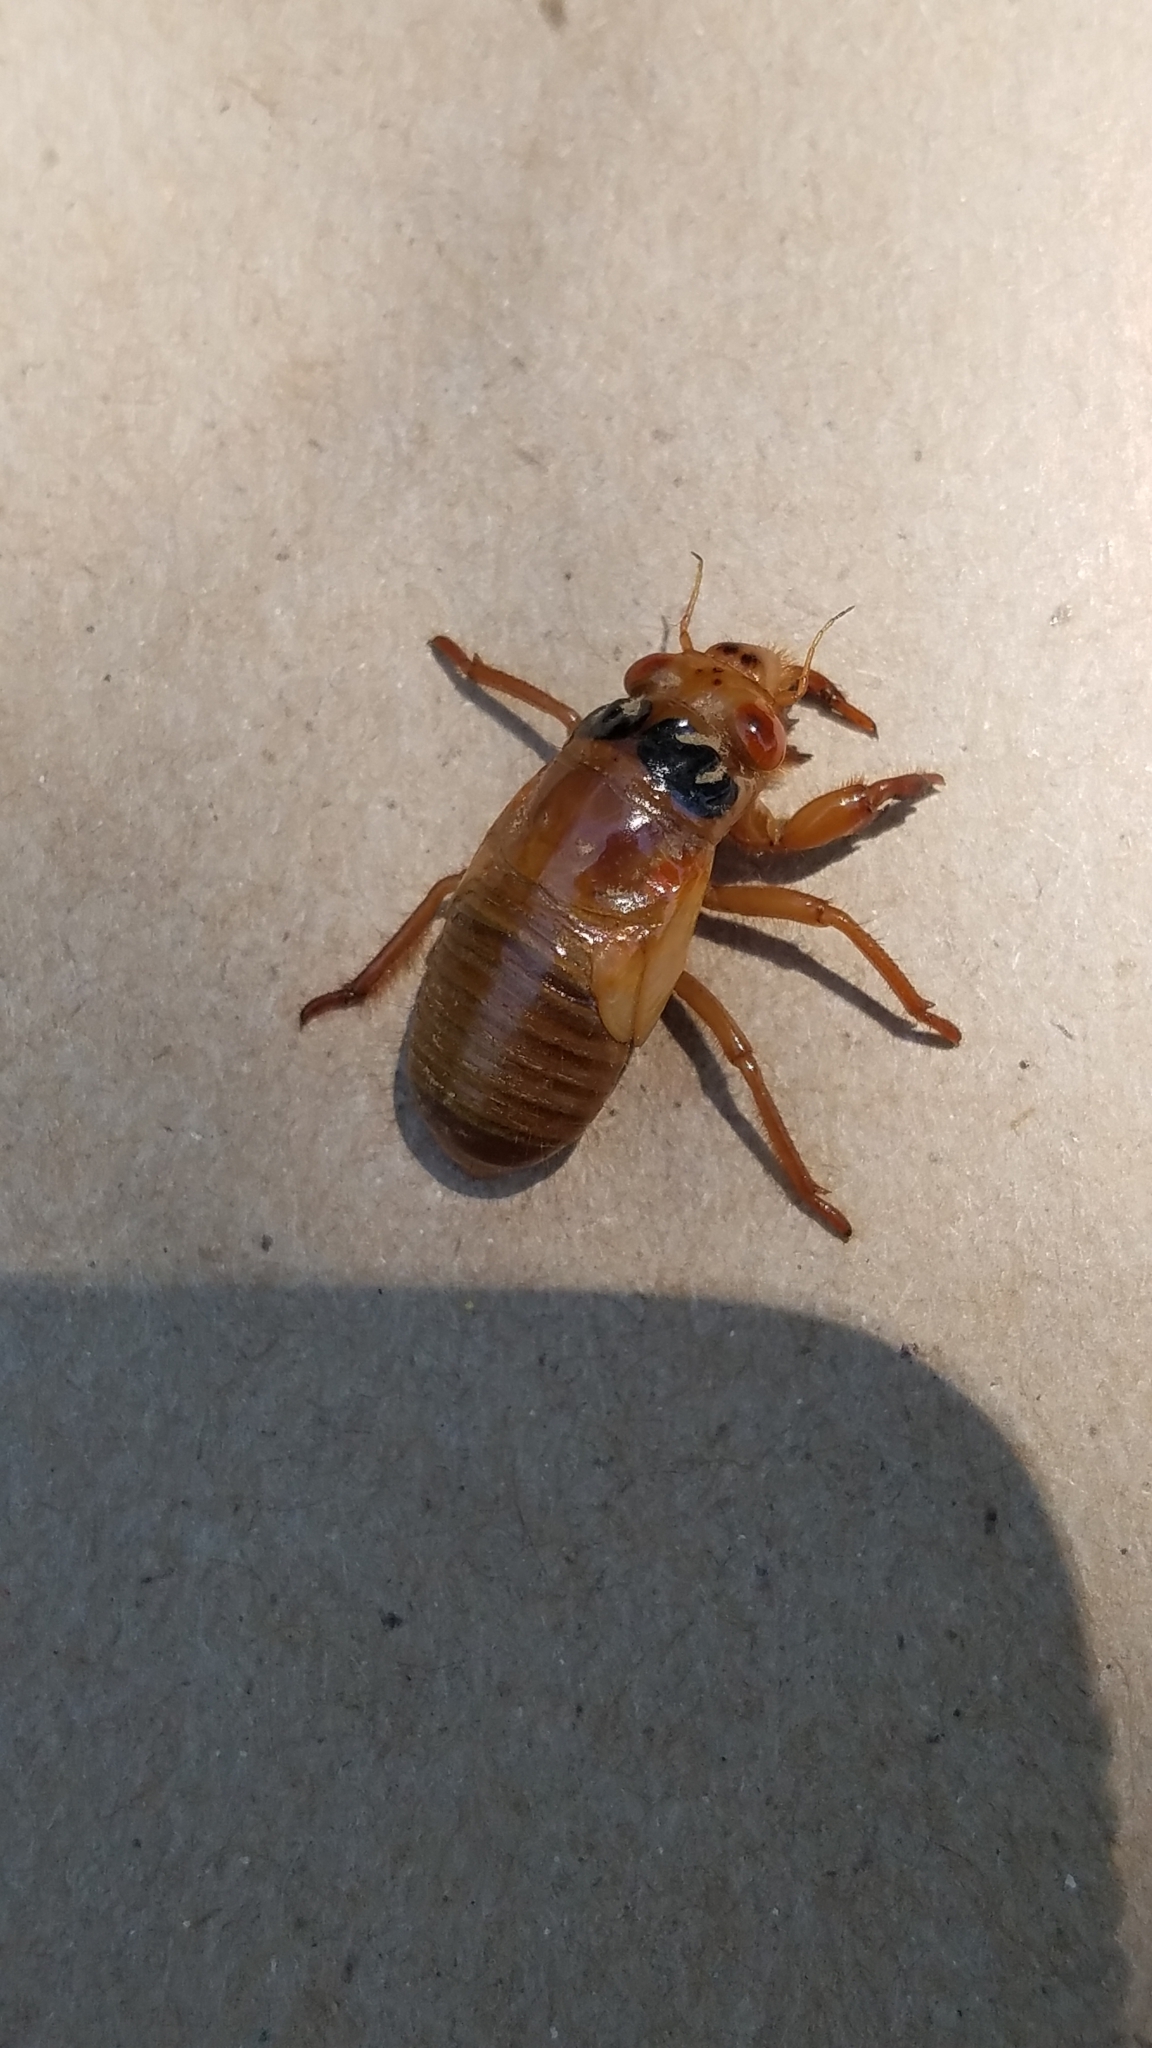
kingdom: Animalia
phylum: Arthropoda
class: Insecta
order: Hemiptera
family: Cicadidae
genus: Magicicada
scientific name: Magicicada
